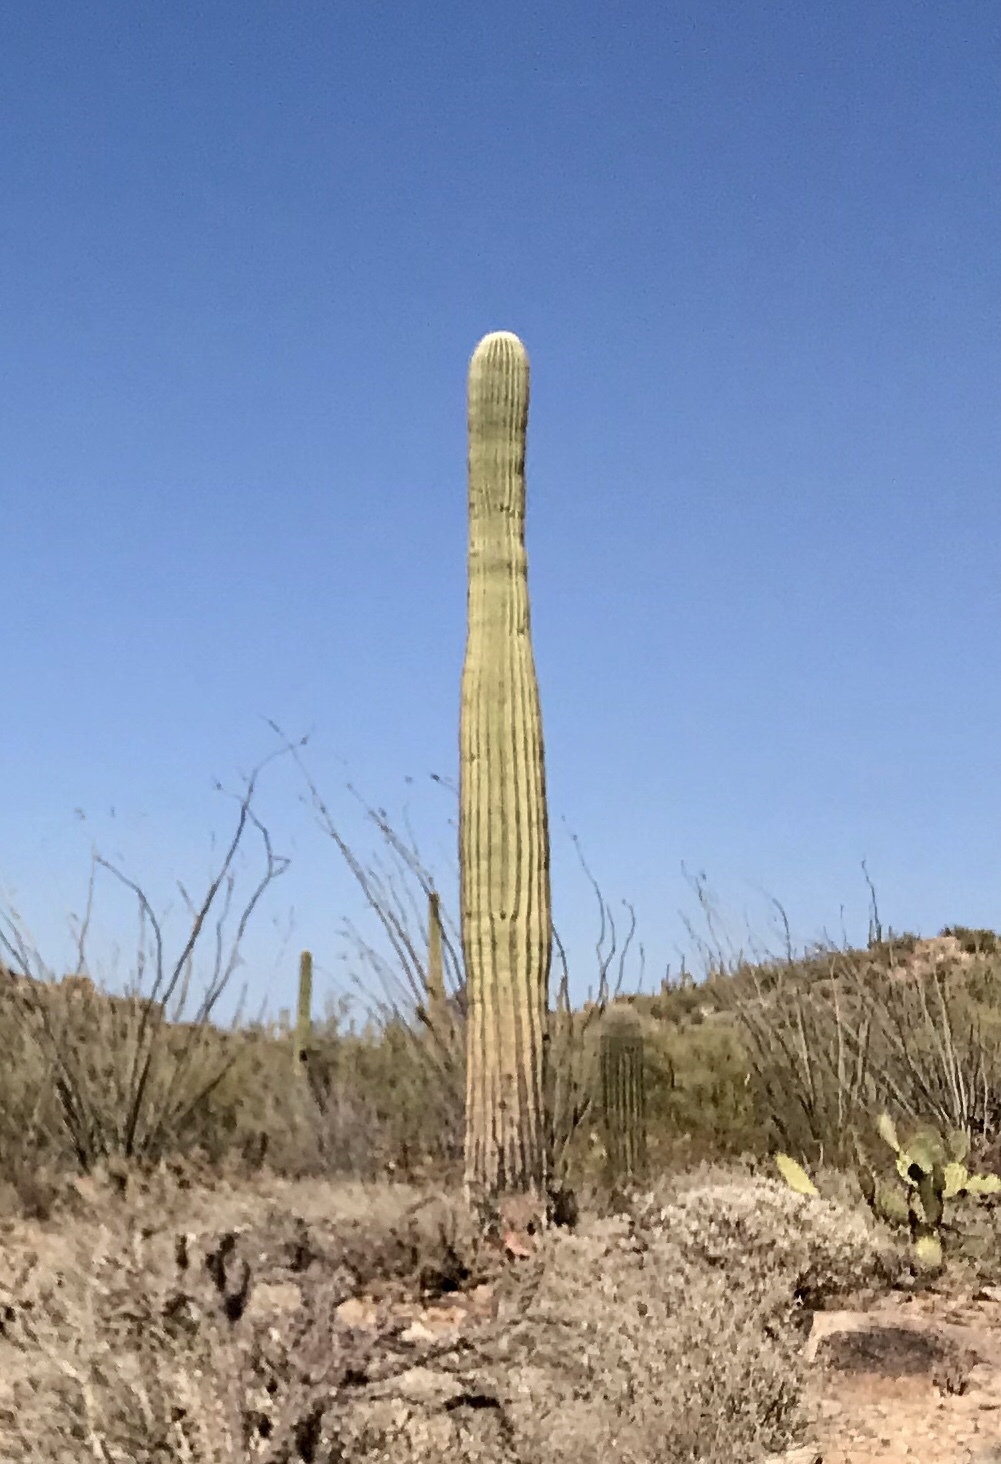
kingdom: Plantae
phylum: Tracheophyta
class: Magnoliopsida
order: Caryophyllales
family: Cactaceae
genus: Carnegiea
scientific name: Carnegiea gigantea
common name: Saguaro
